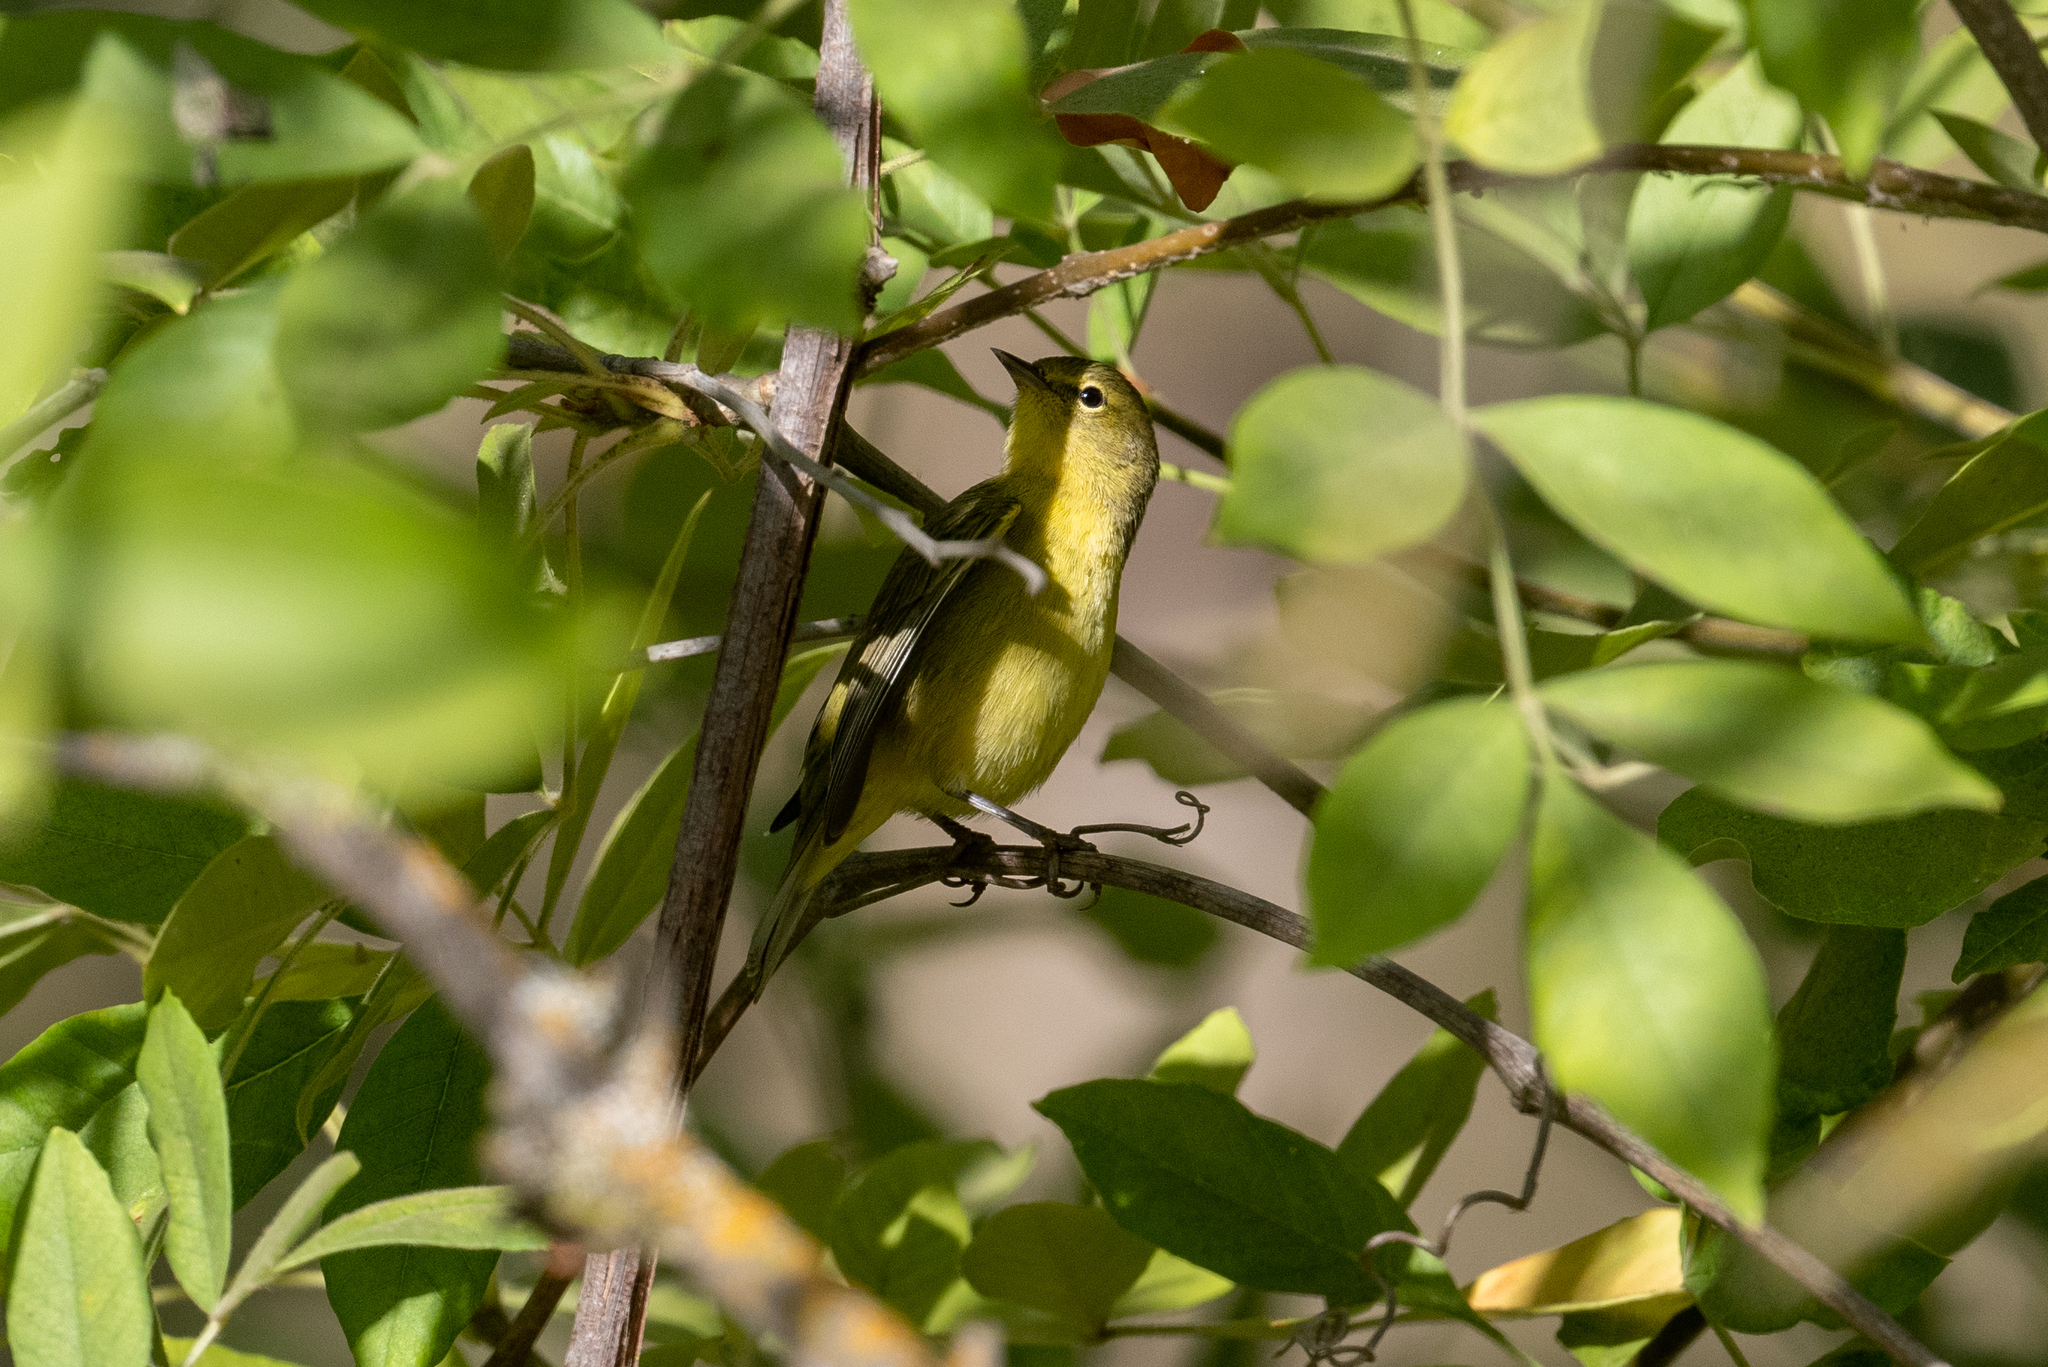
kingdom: Animalia
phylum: Chordata
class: Aves
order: Passeriformes
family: Parulidae
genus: Leiothlypis
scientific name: Leiothlypis celata
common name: Orange-crowned warbler
